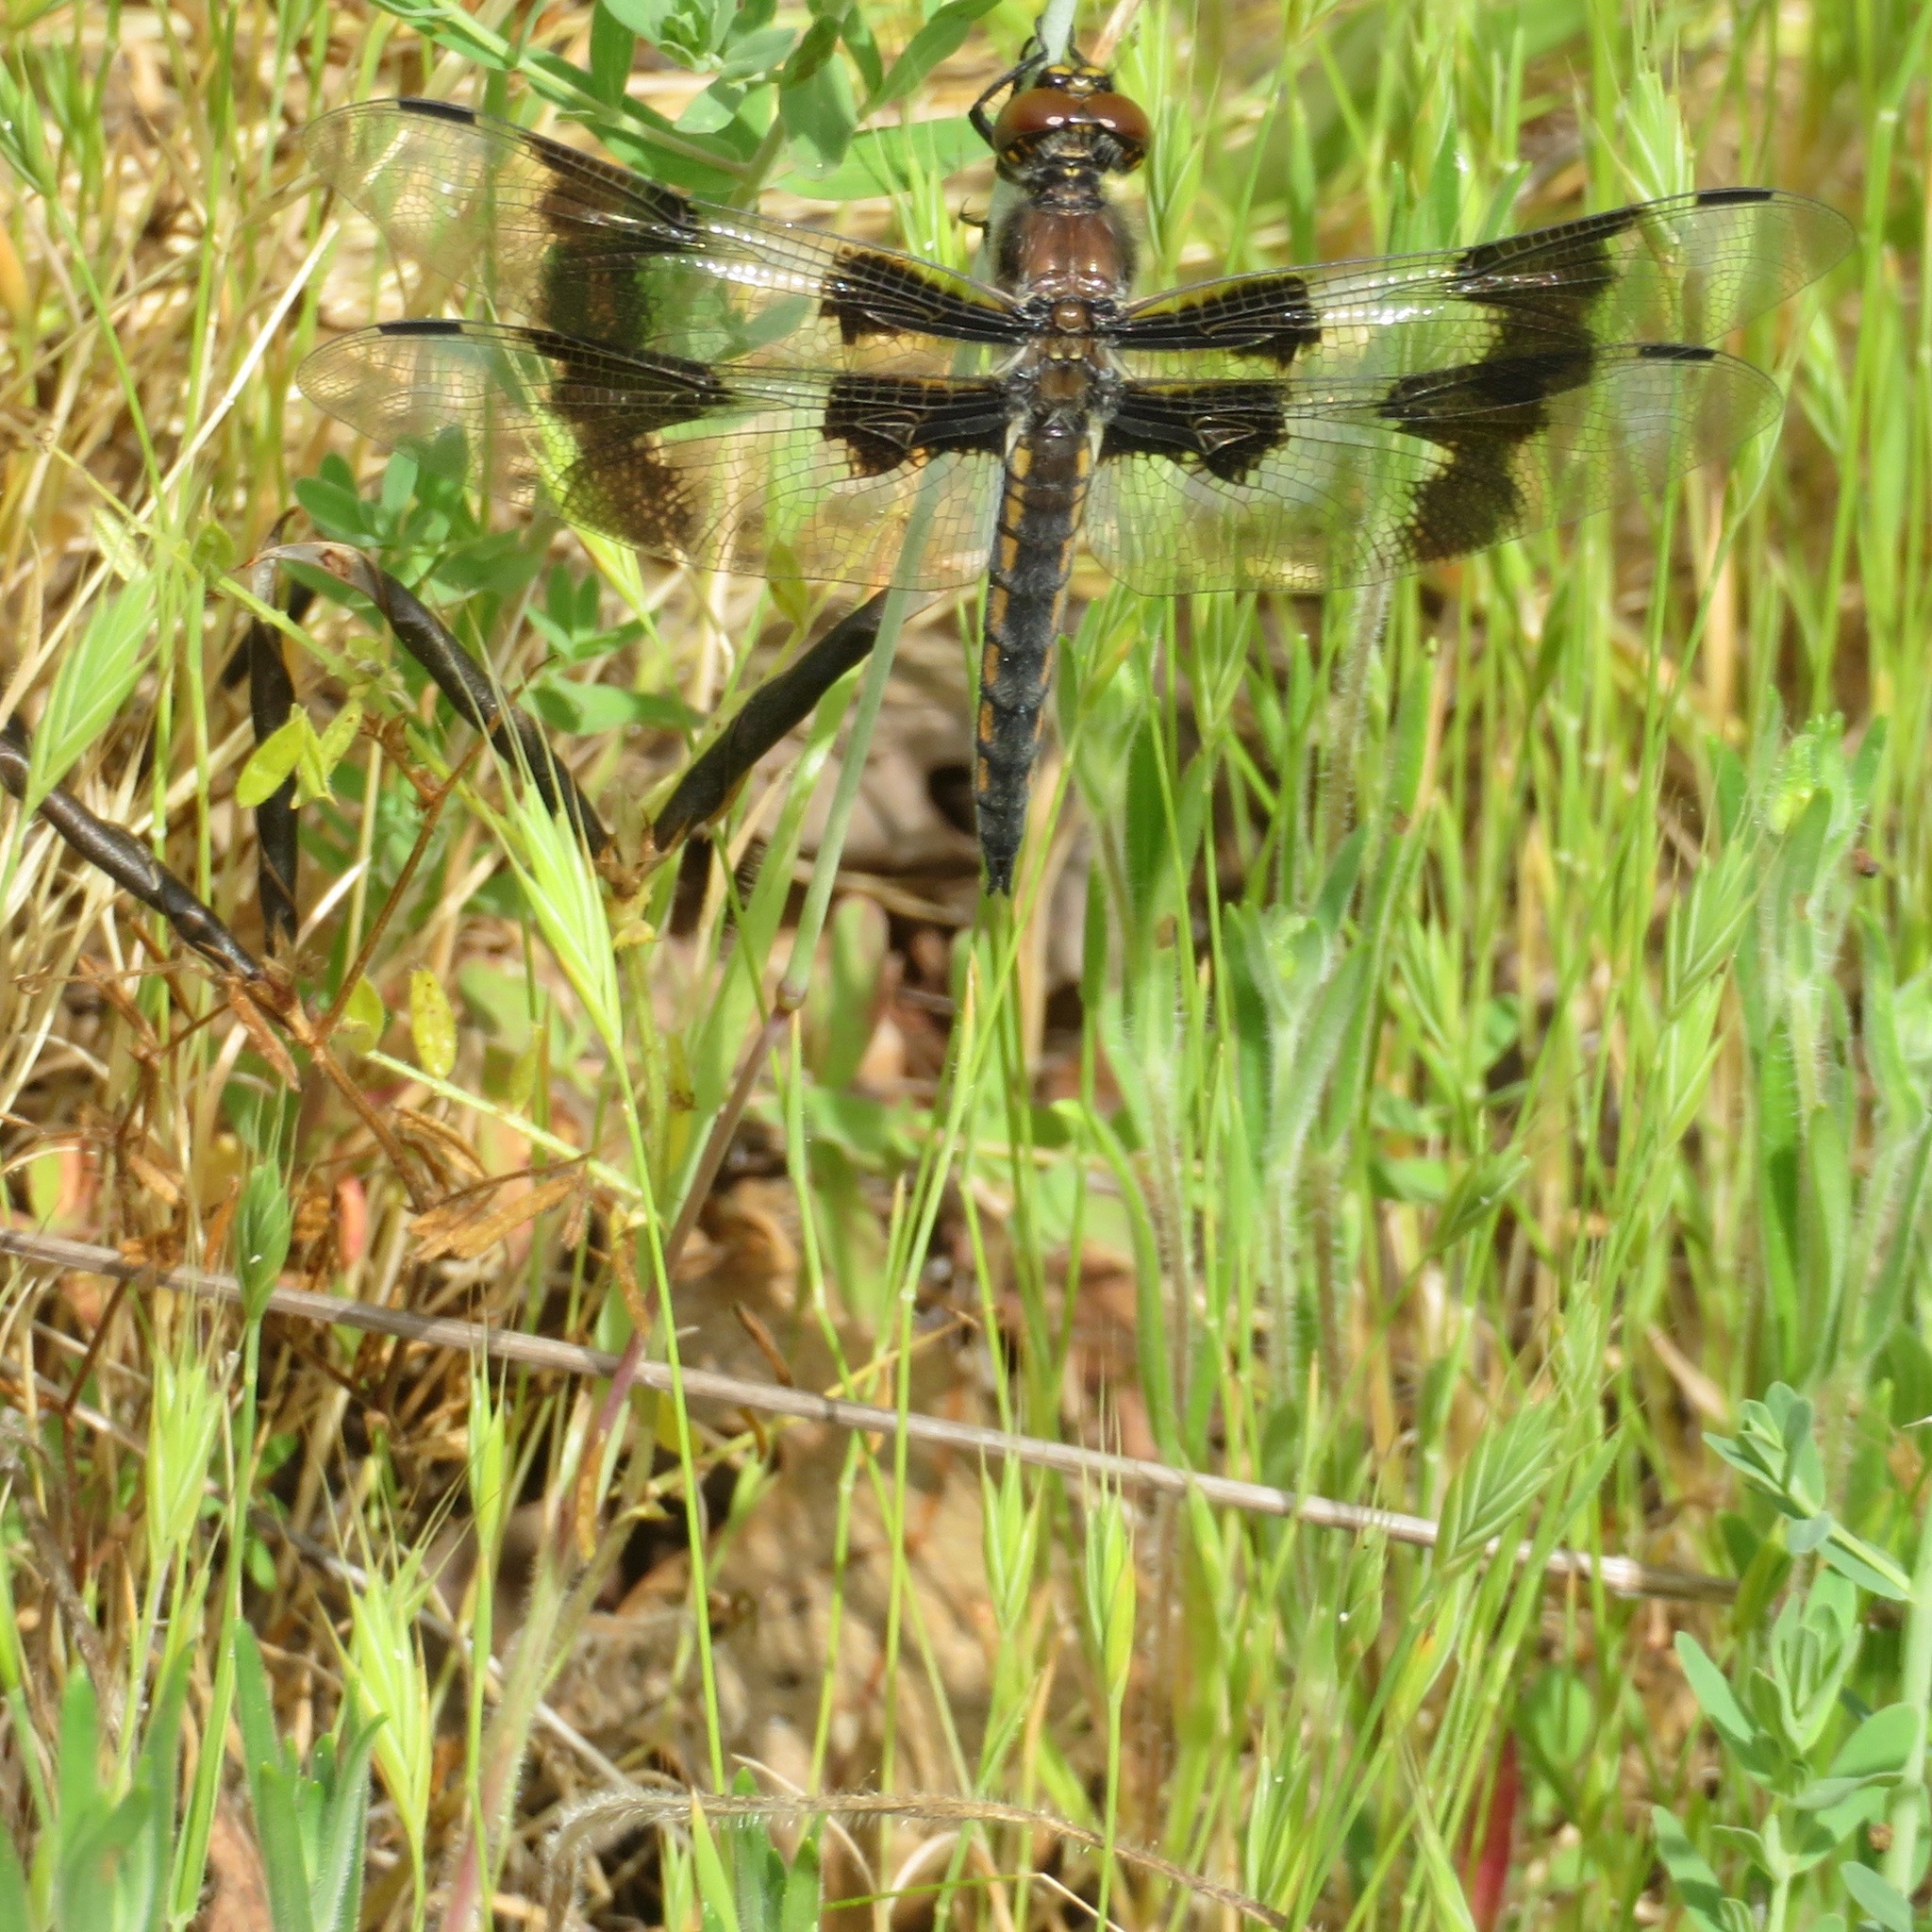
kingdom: Animalia
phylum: Arthropoda
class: Insecta
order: Odonata
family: Libellulidae
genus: Libellula
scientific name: Libellula forensis
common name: Eight-spotted skimmer
